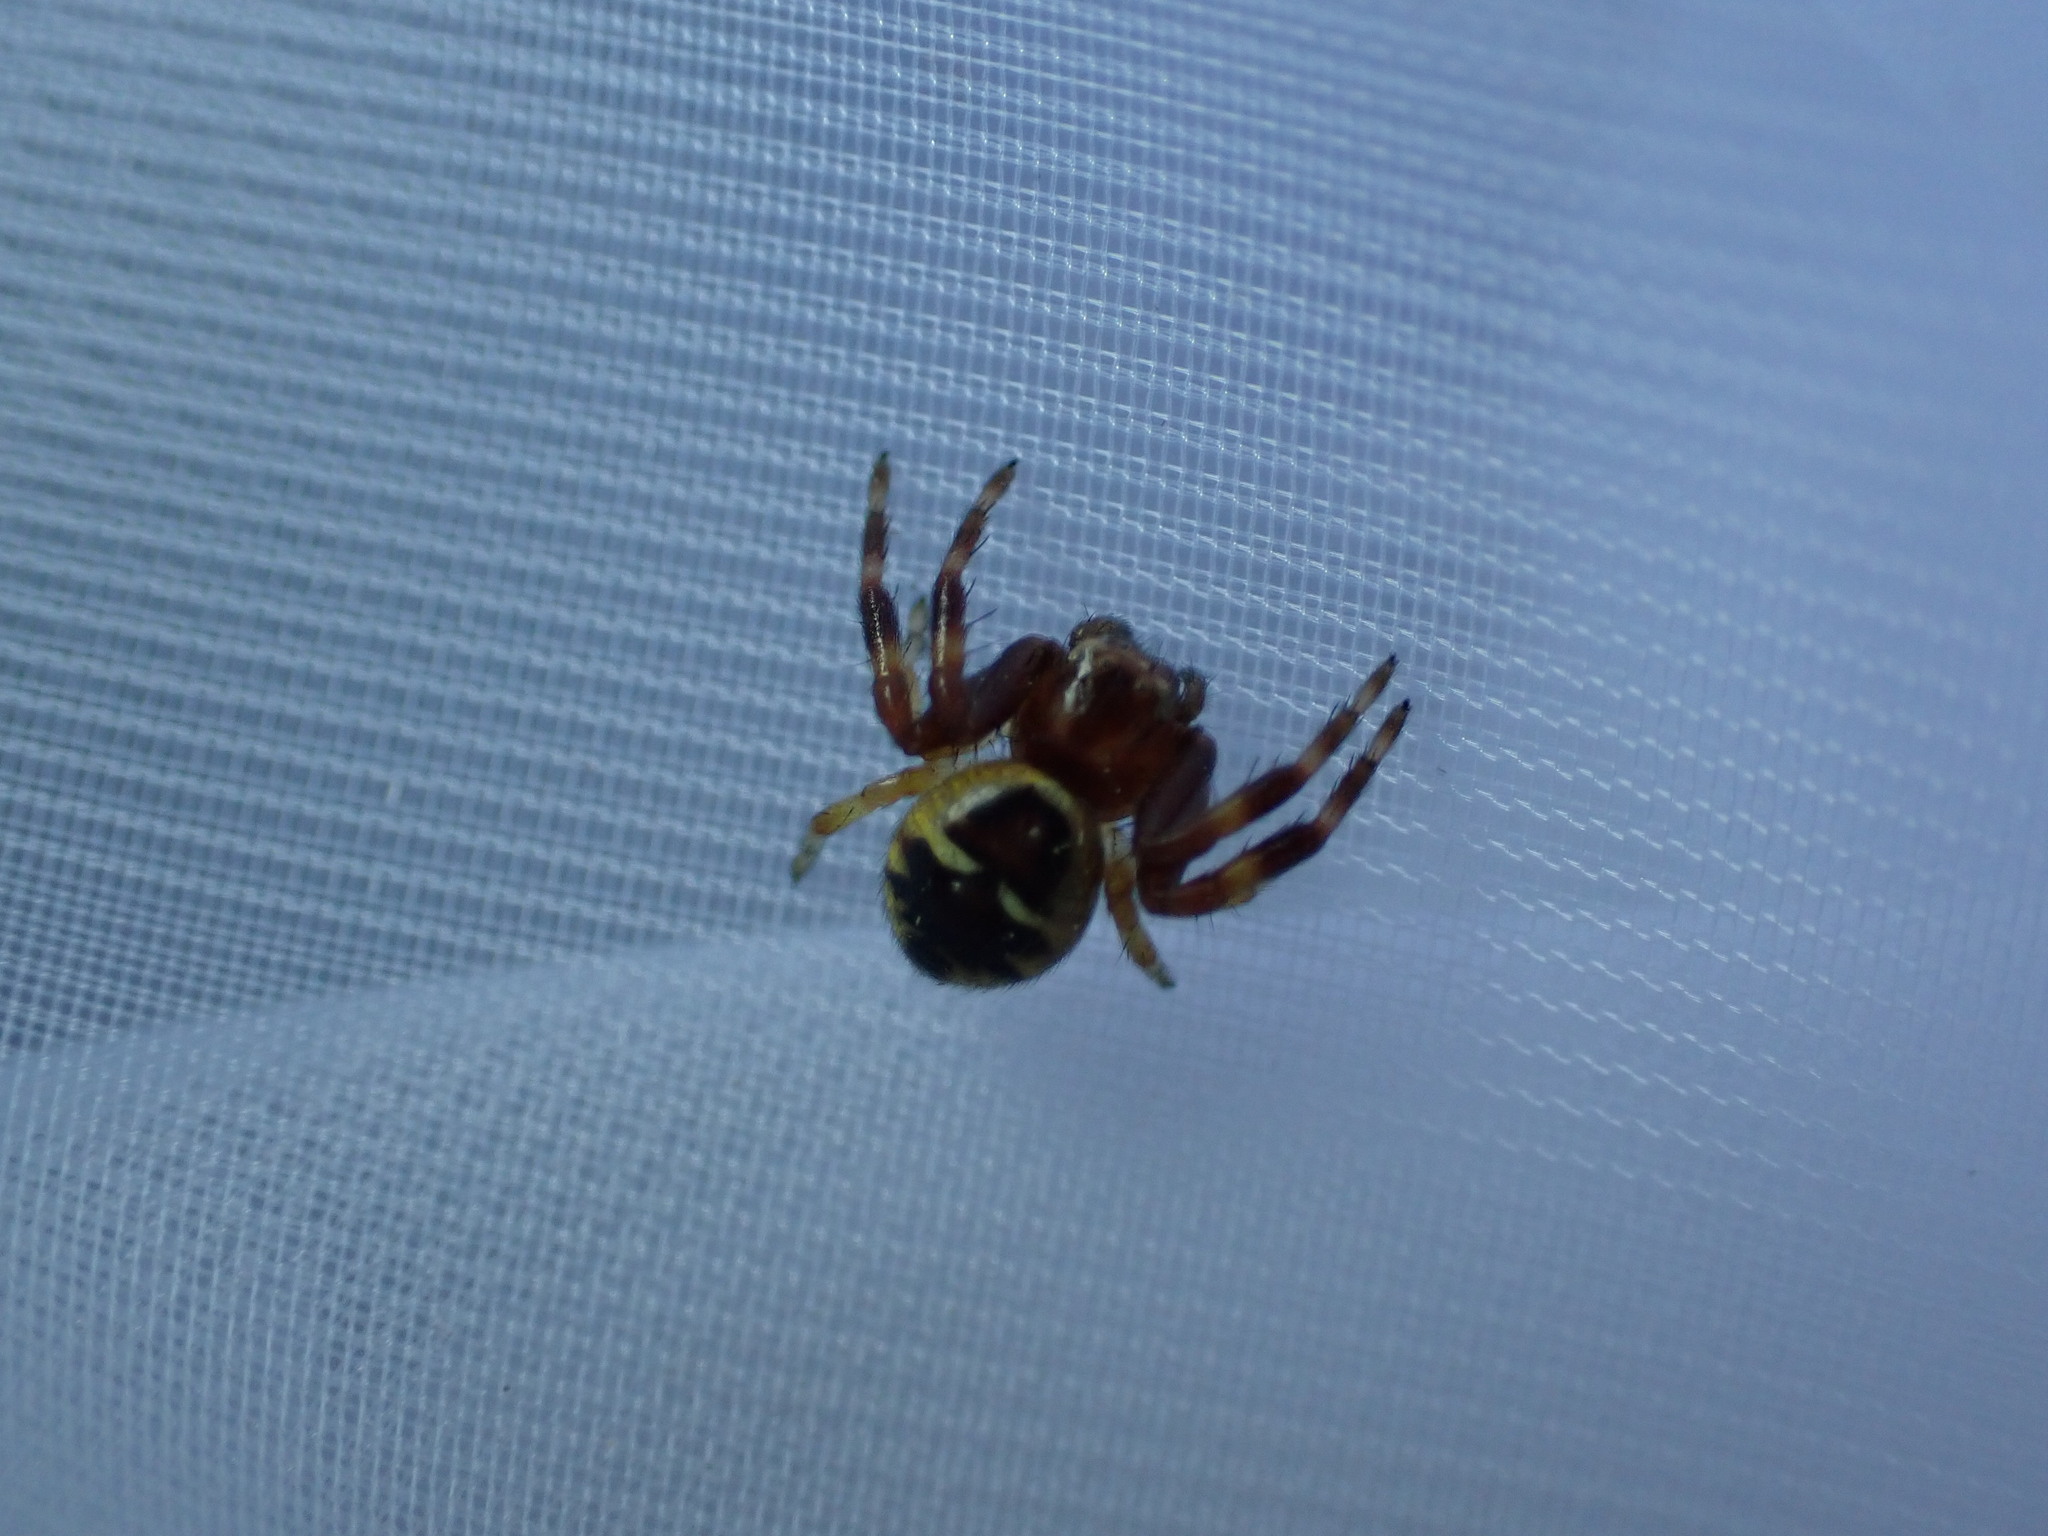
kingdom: Animalia
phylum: Arthropoda
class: Arachnida
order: Araneae
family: Thomisidae
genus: Synema
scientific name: Synema globosum
